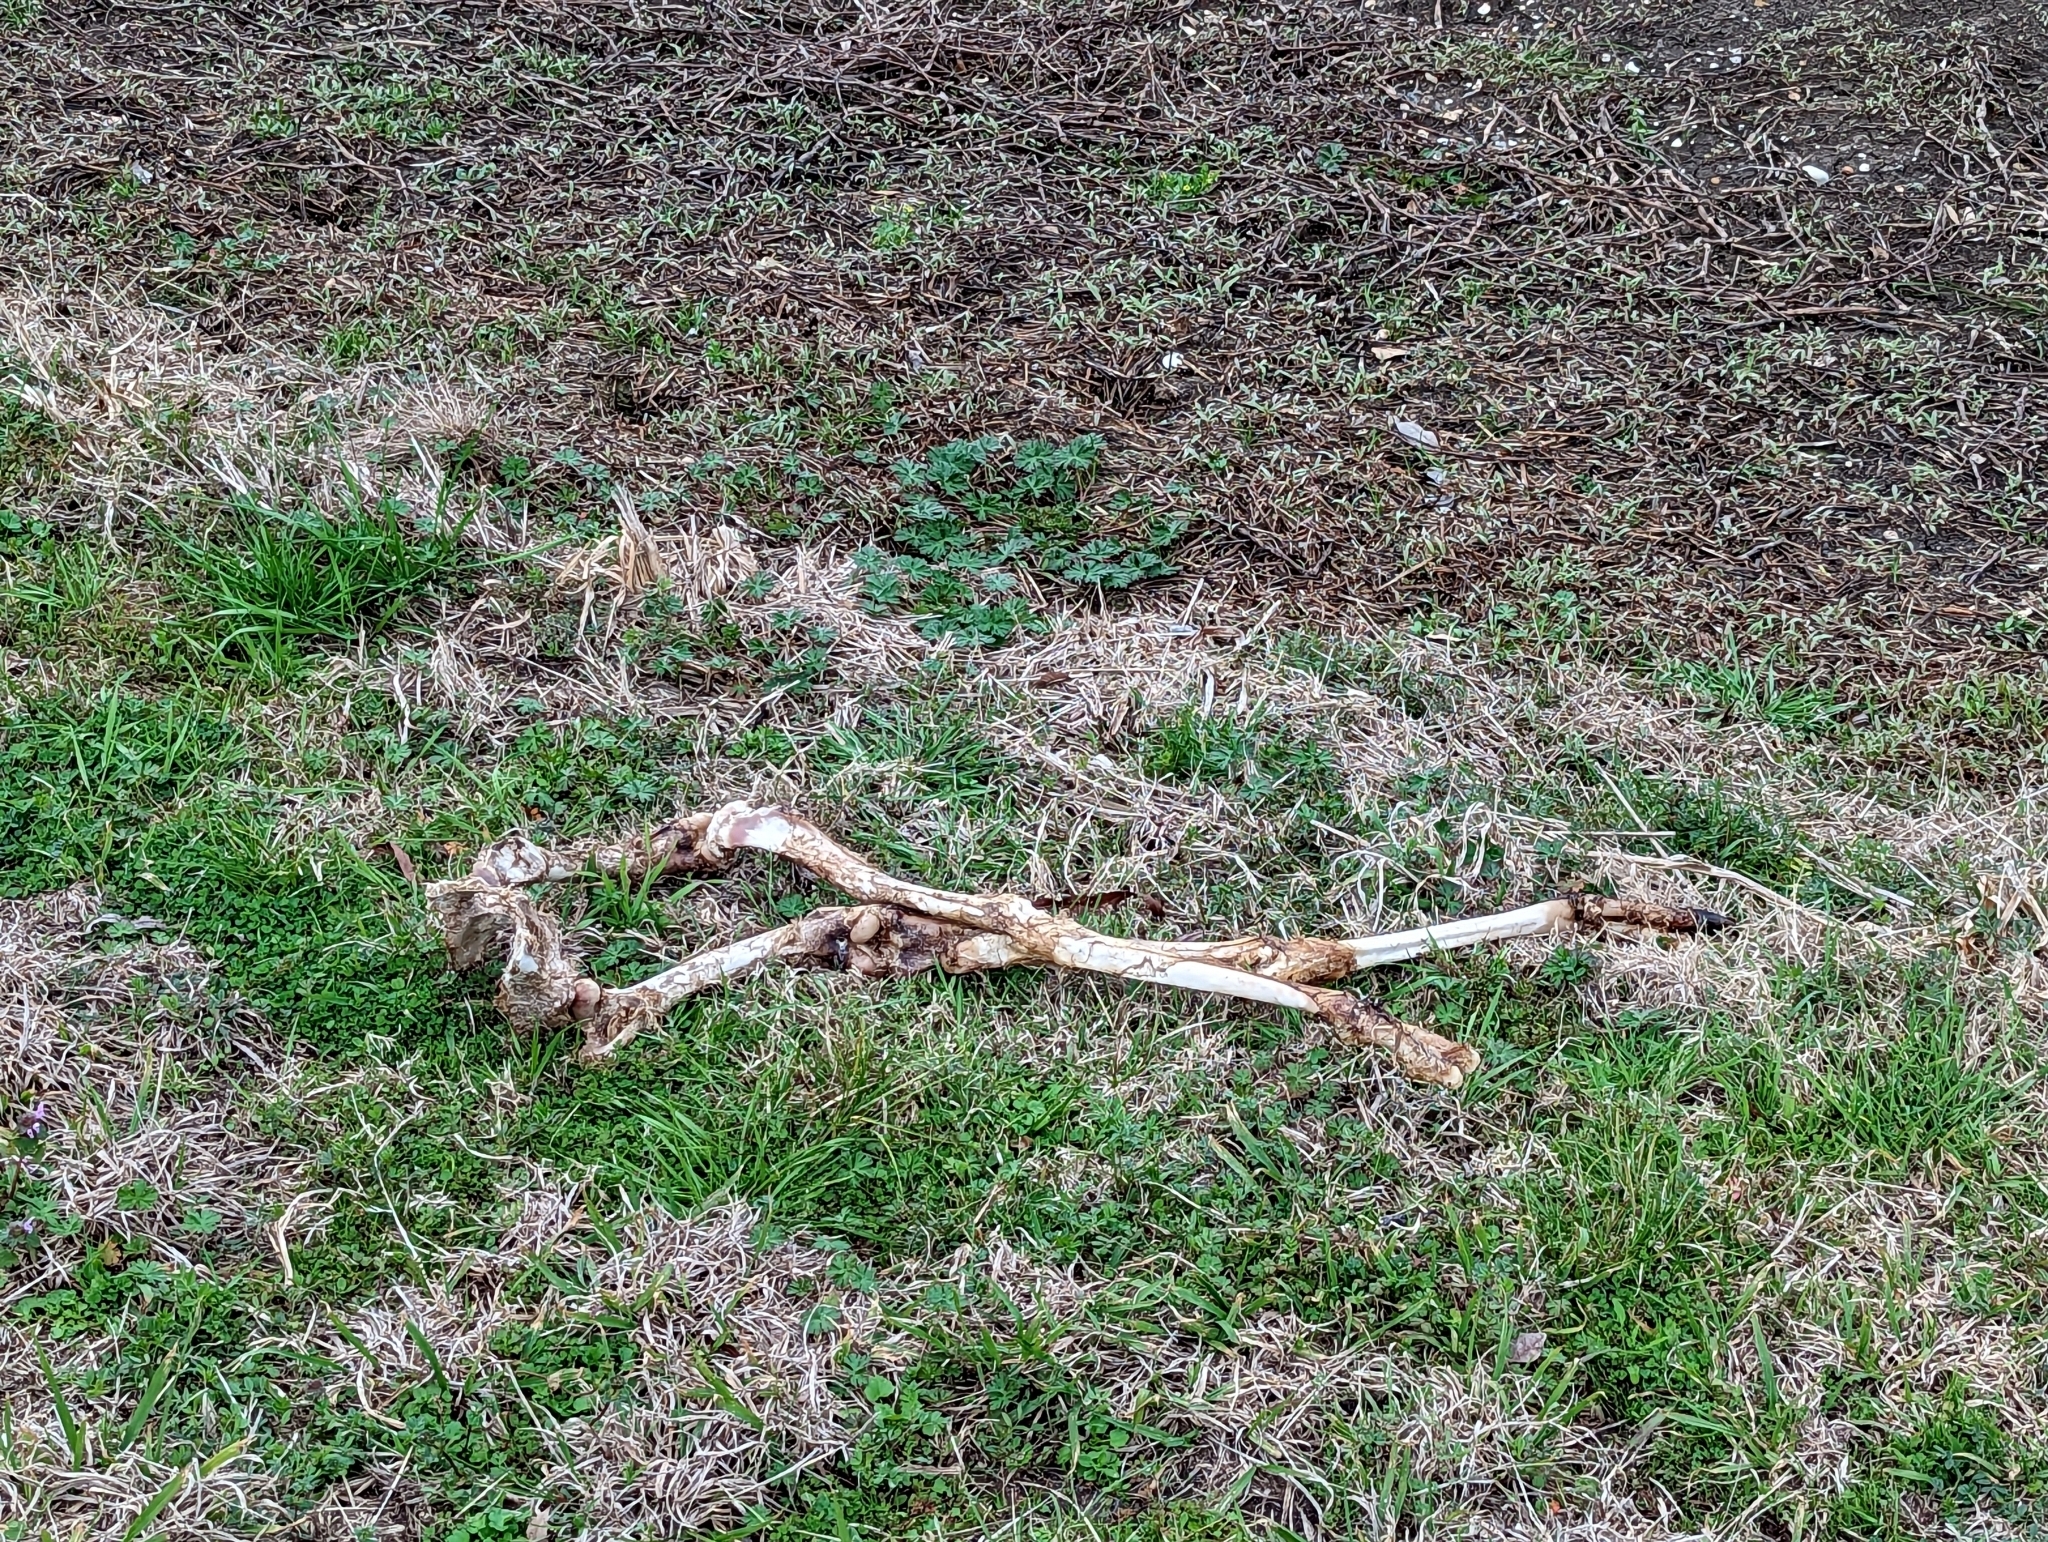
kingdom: Animalia
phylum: Chordata
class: Mammalia
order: Artiodactyla
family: Cervidae
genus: Odocoileus
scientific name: Odocoileus virginianus
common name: White-tailed deer
